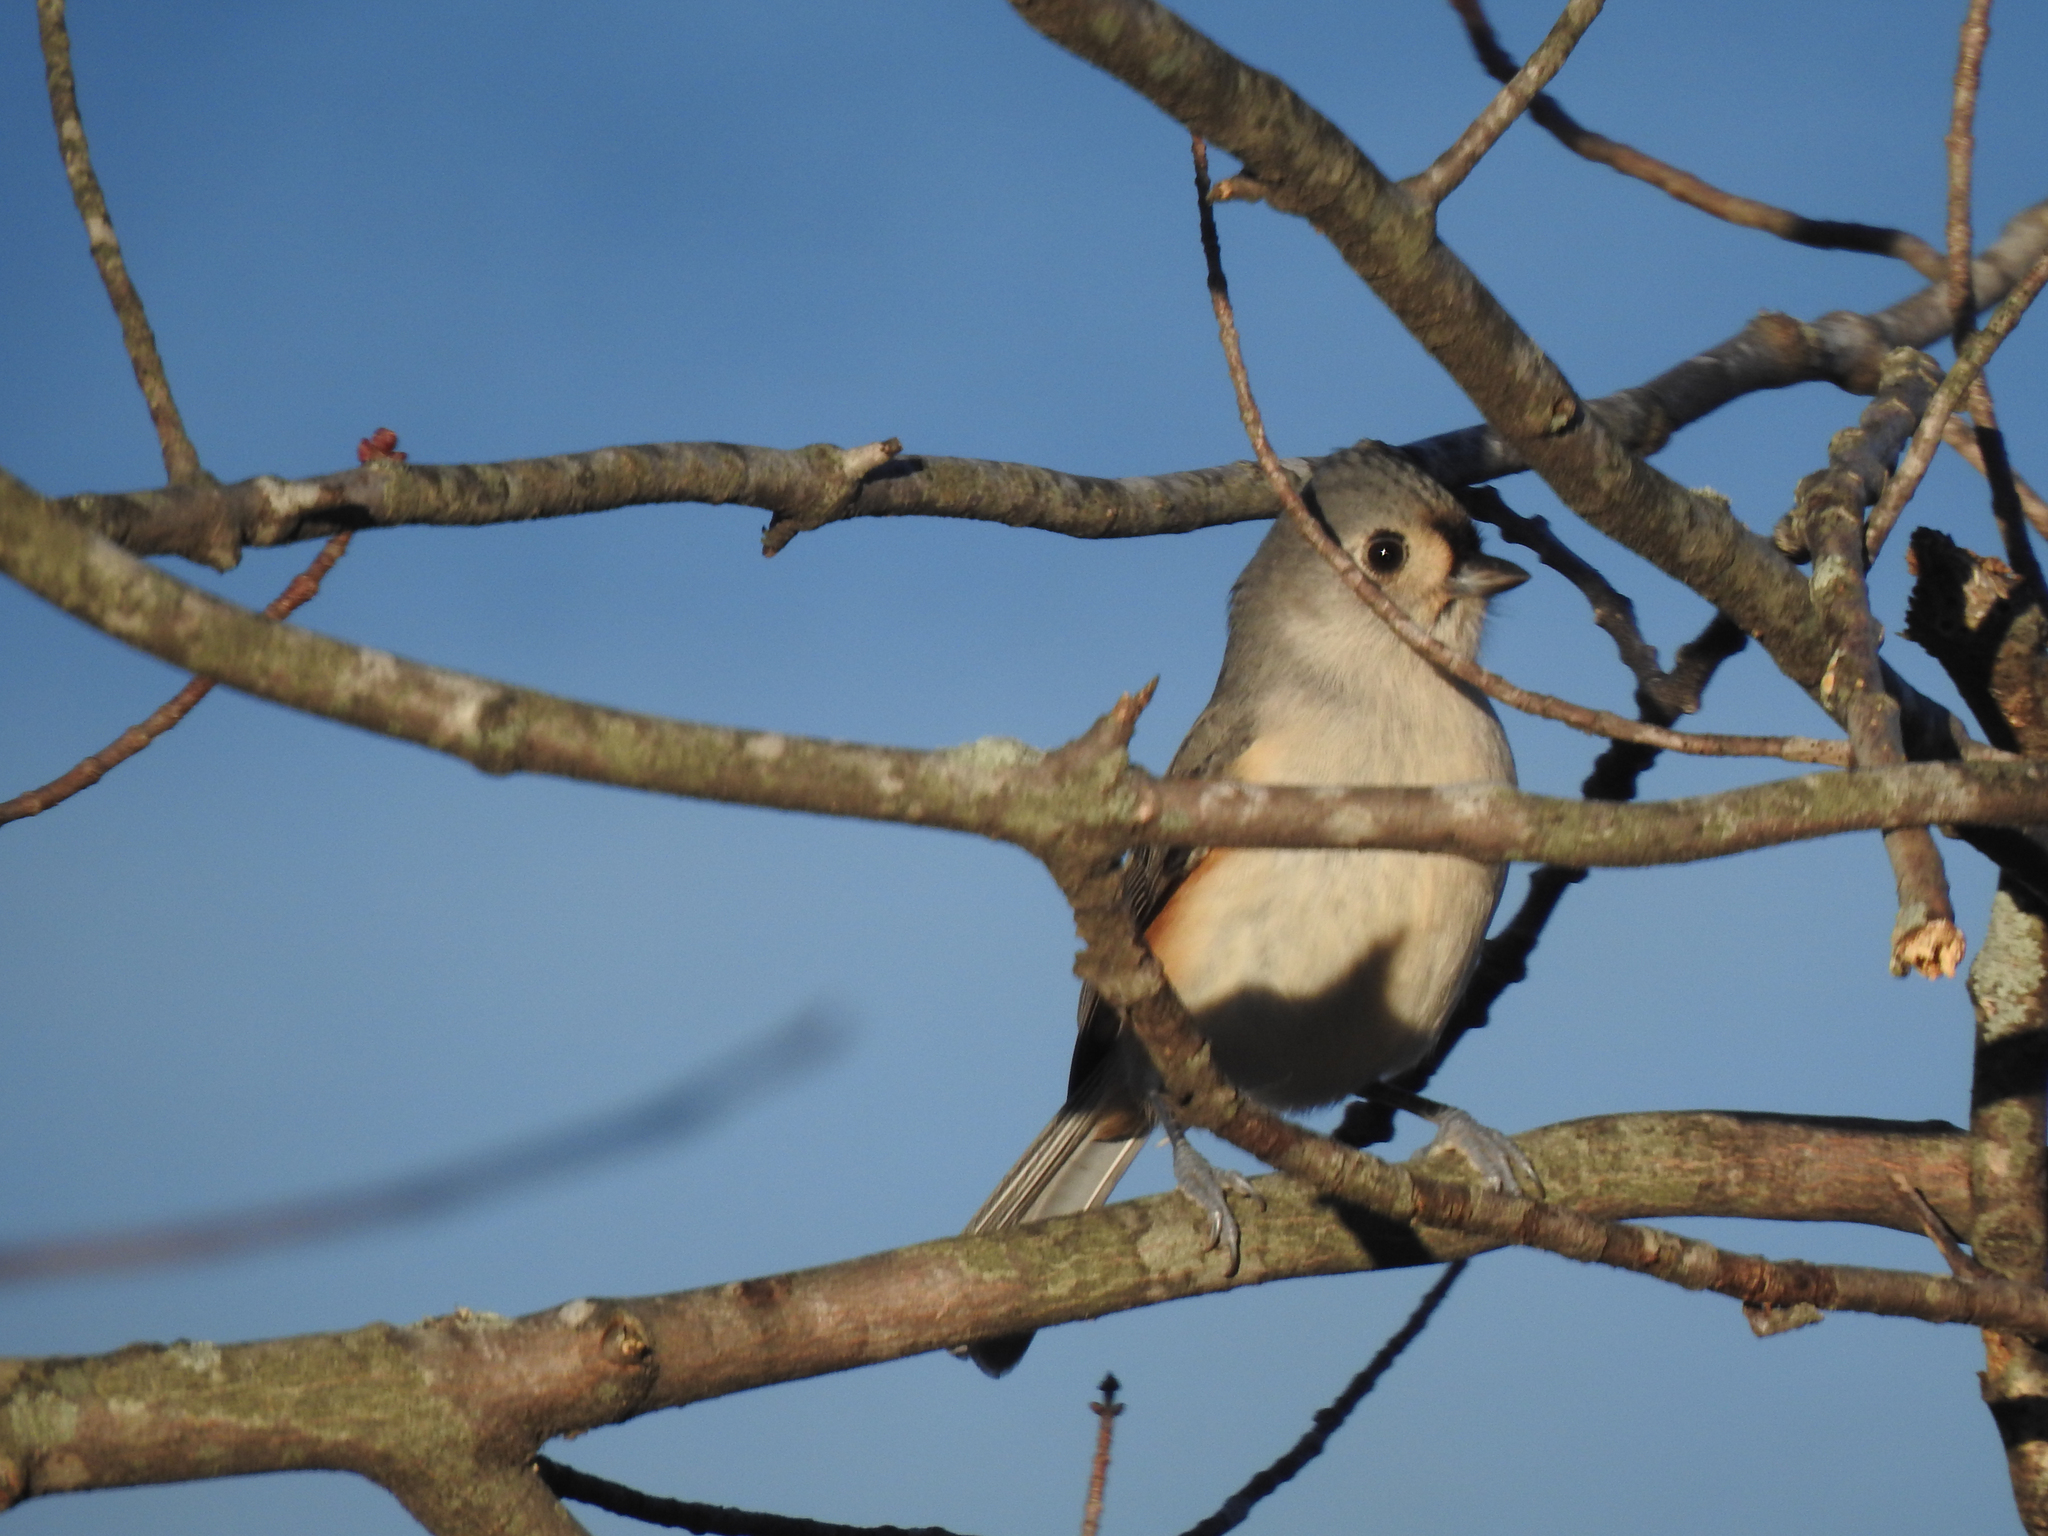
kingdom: Animalia
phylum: Chordata
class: Aves
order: Passeriformes
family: Paridae
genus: Baeolophus
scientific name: Baeolophus bicolor
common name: Tufted titmouse
